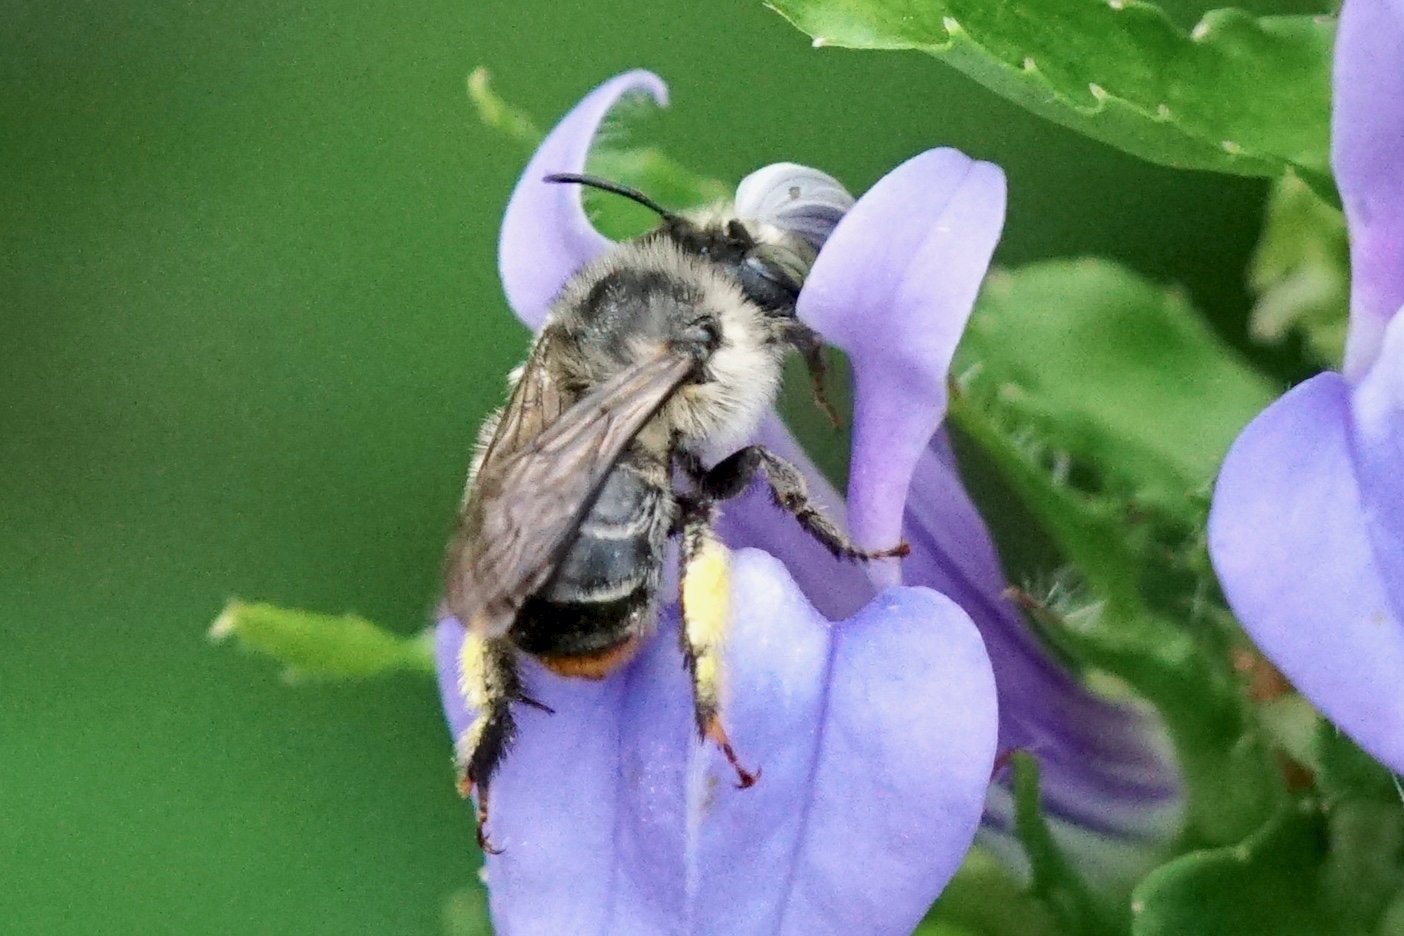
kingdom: Animalia
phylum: Arthropoda
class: Insecta
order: Hymenoptera
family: Apidae
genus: Anthophora
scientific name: Anthophora terminalis
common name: Orange-tipped wood-digger bee
